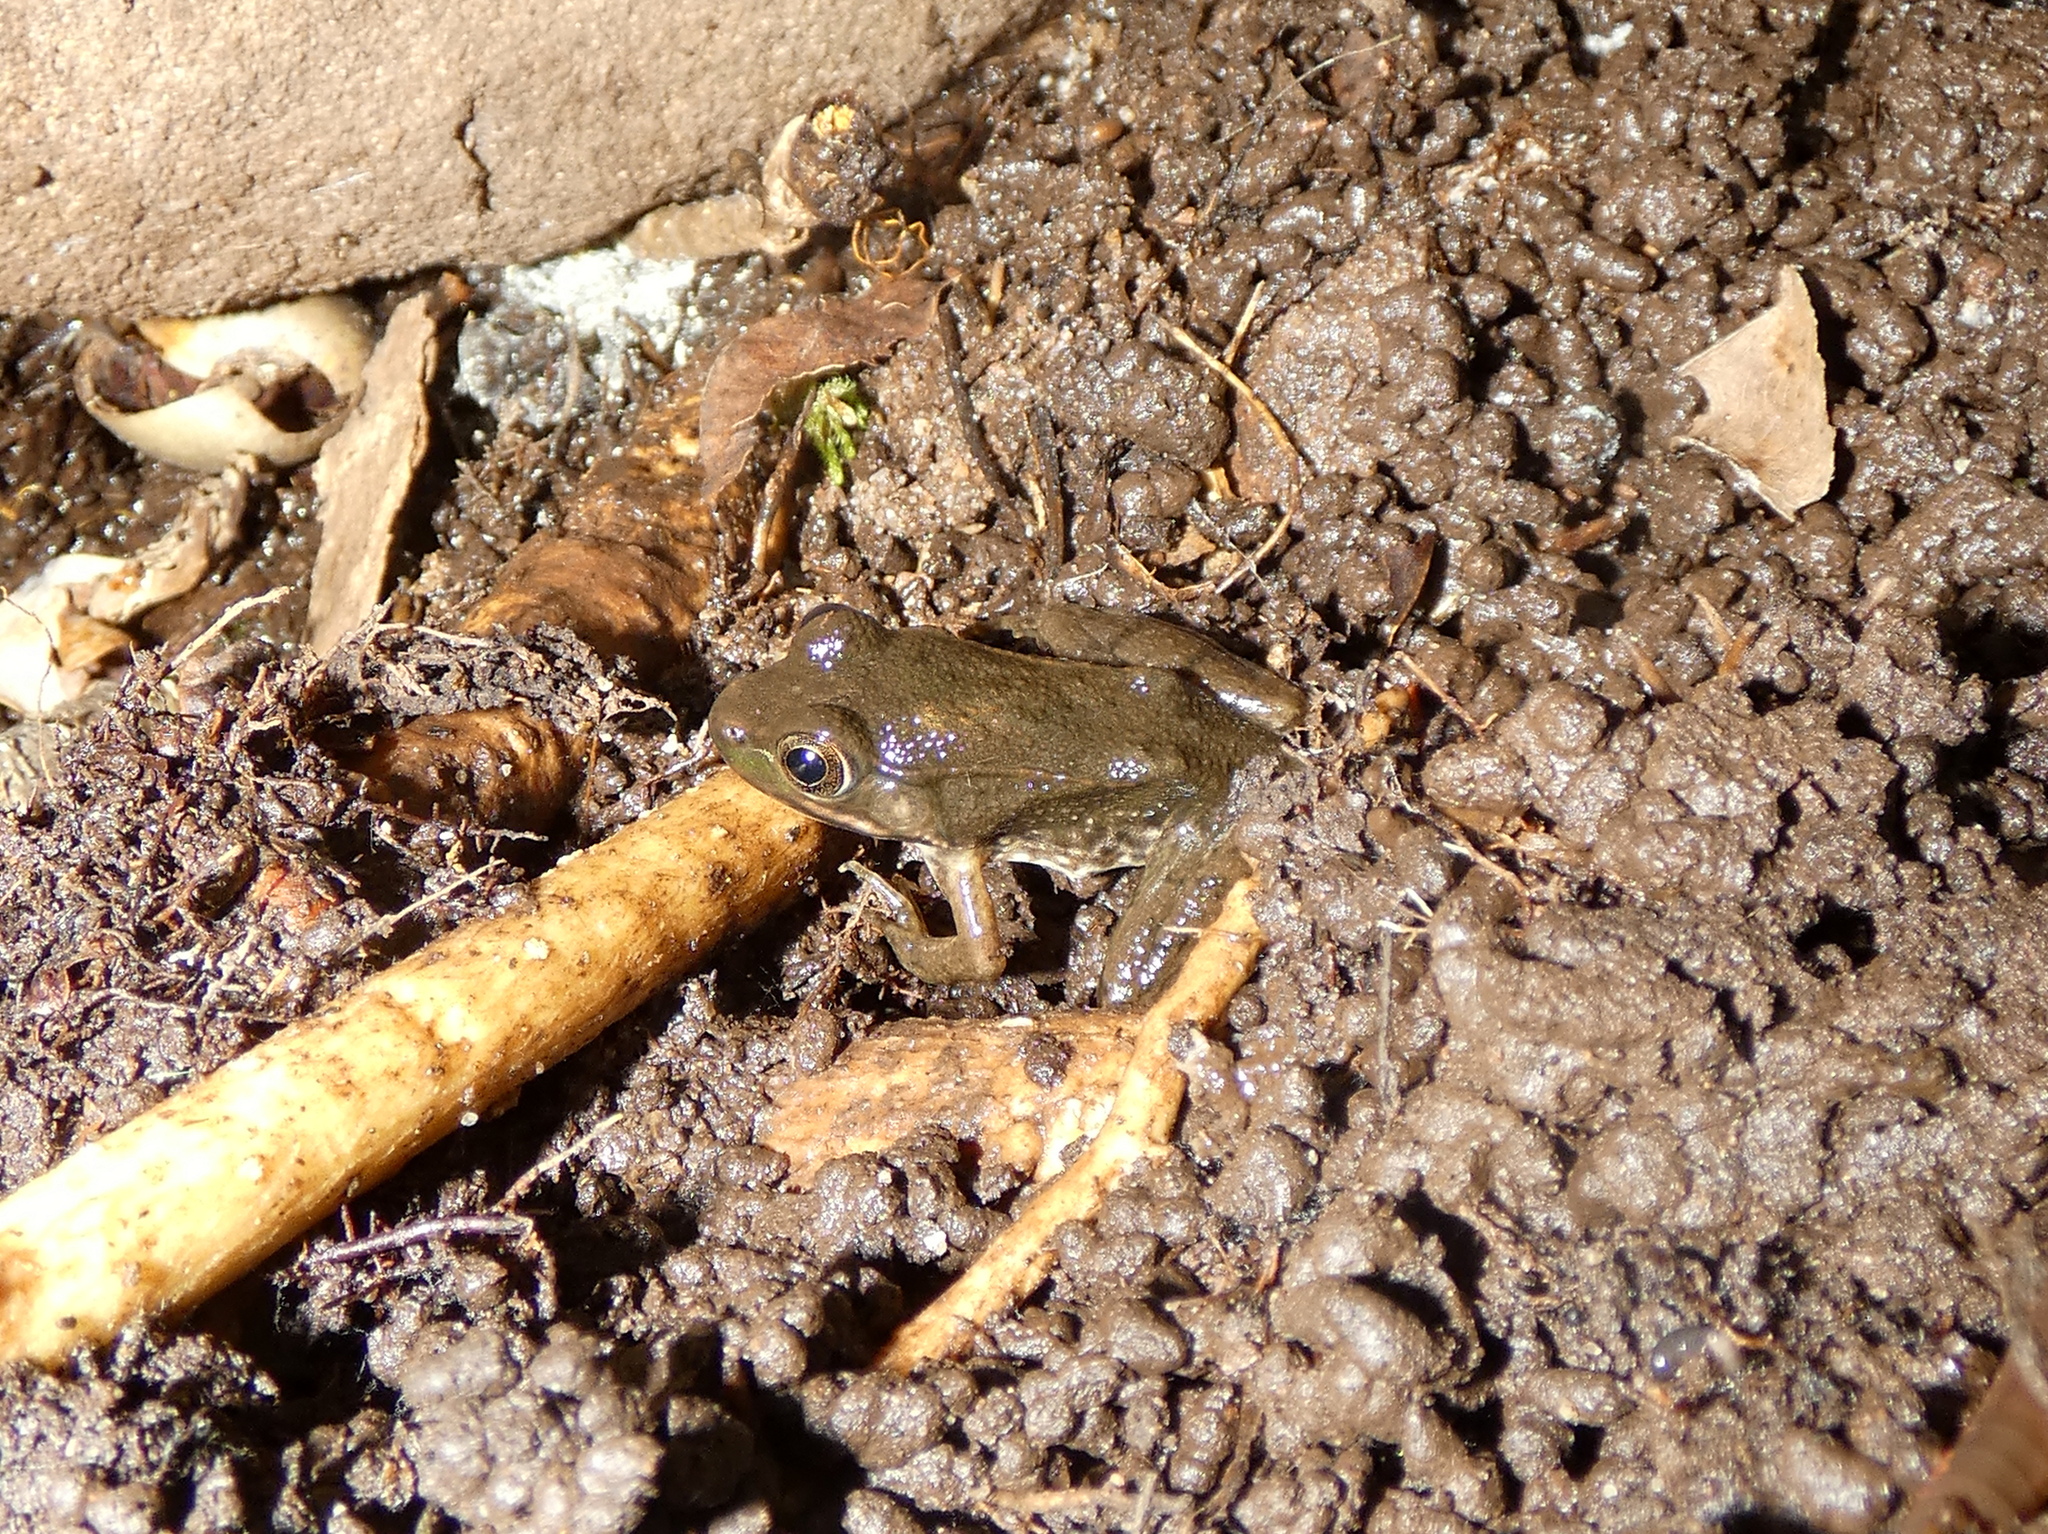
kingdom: Animalia
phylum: Chordata
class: Amphibia
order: Anura
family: Ranidae
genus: Lithobates
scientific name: Lithobates clamitans
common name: Green frog
